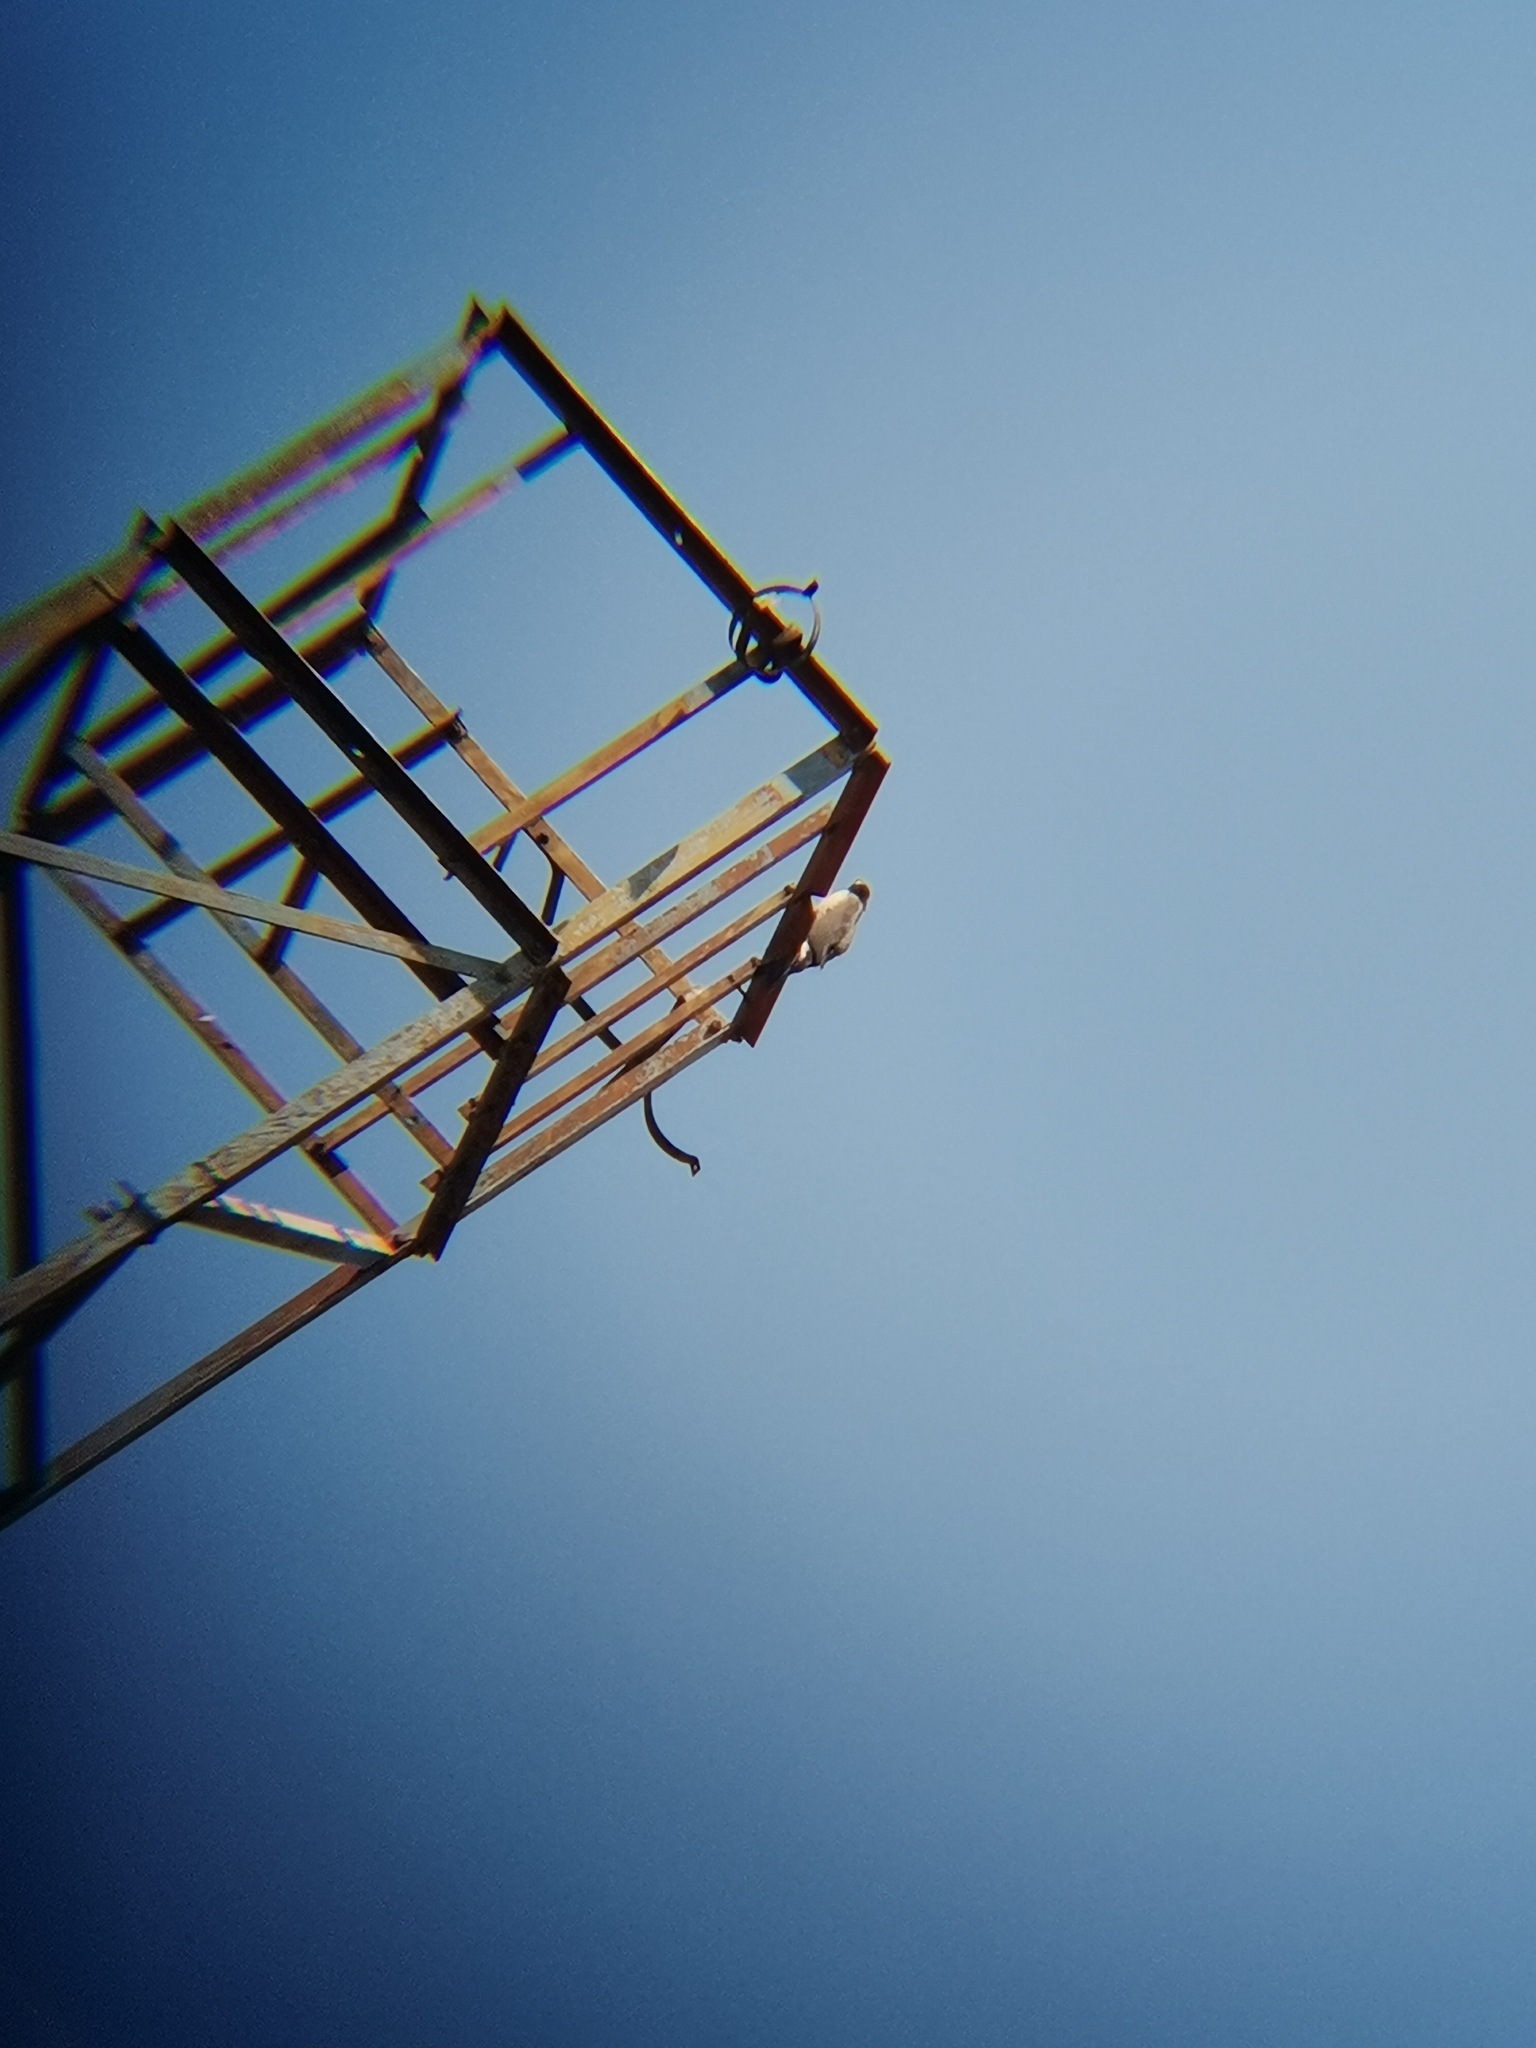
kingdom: Animalia
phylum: Chordata
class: Aves
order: Accipitriformes
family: Accipitridae
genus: Accipiter
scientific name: Accipiter cooperii
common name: Cooper's hawk
